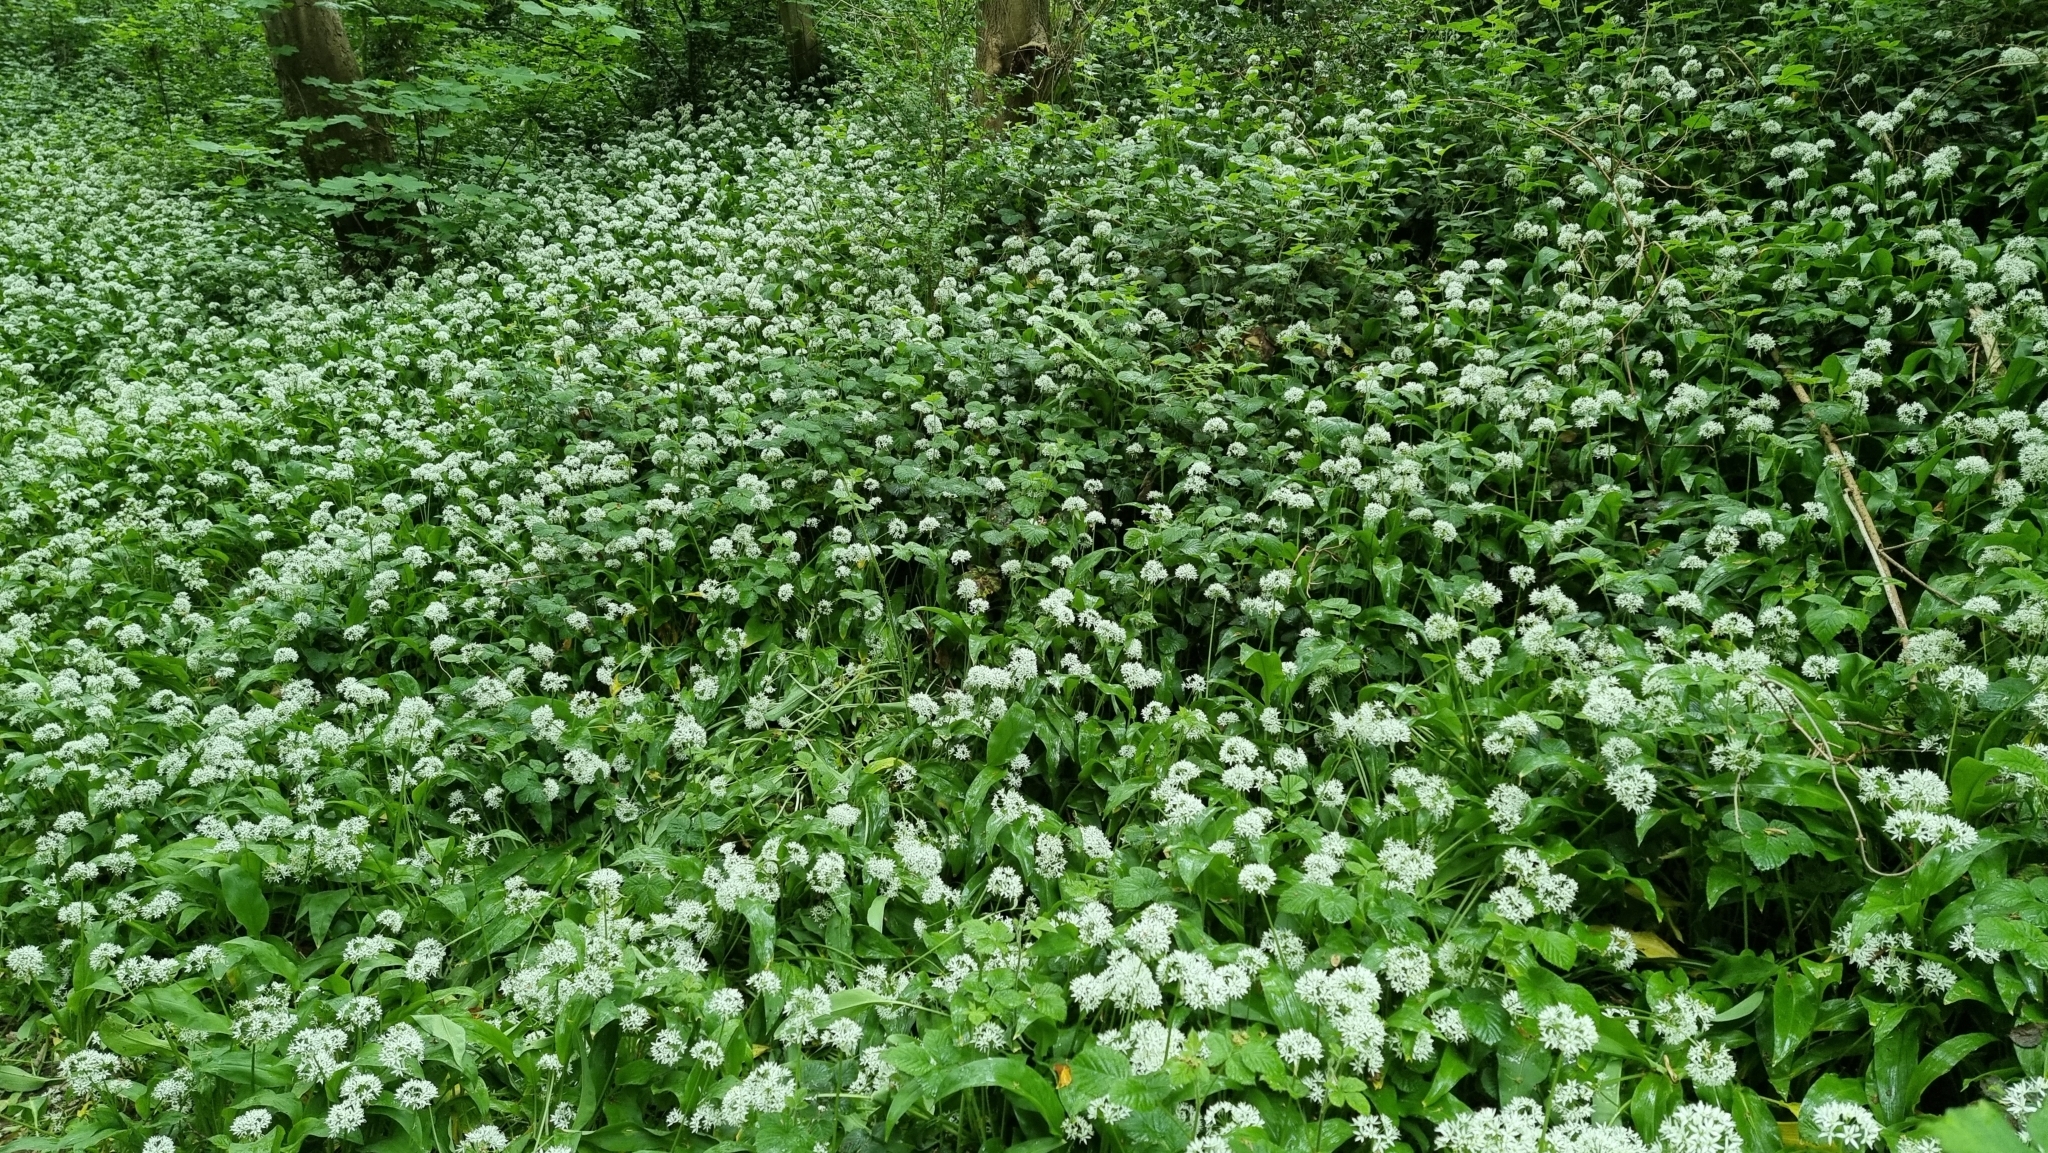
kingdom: Plantae
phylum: Tracheophyta
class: Liliopsida
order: Asparagales
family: Amaryllidaceae
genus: Allium
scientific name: Allium ursinum
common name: Ramsons
